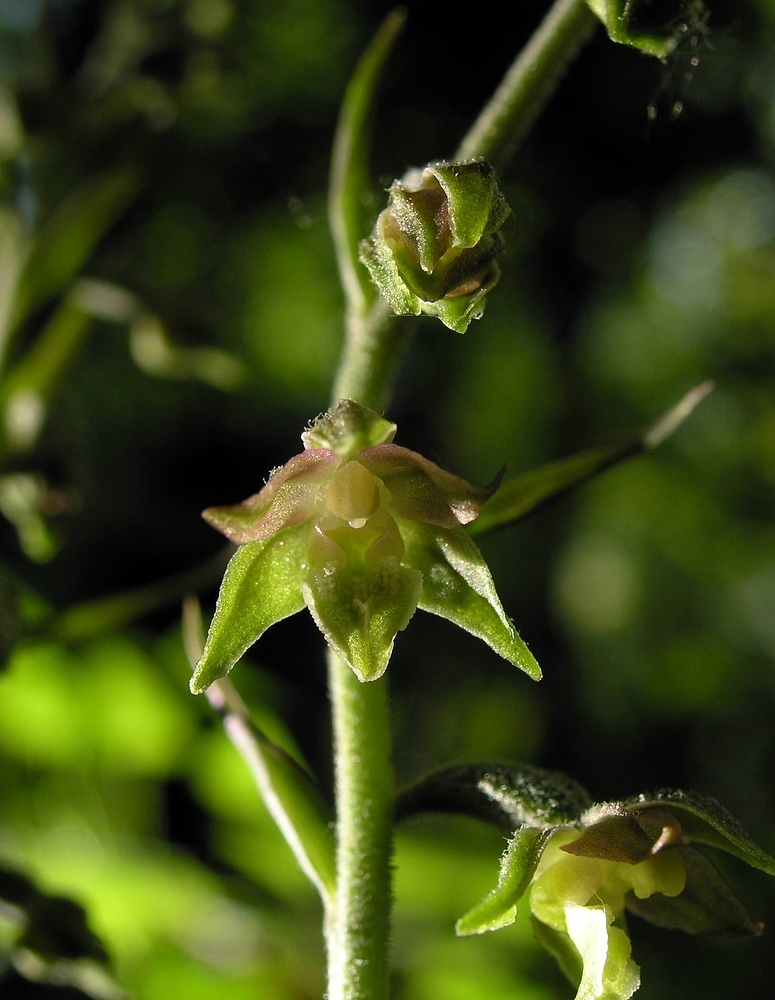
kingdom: Plantae
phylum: Tracheophyta
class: Liliopsida
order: Asparagales
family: Orchidaceae
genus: Epipactis
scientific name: Epipactis microphylla
